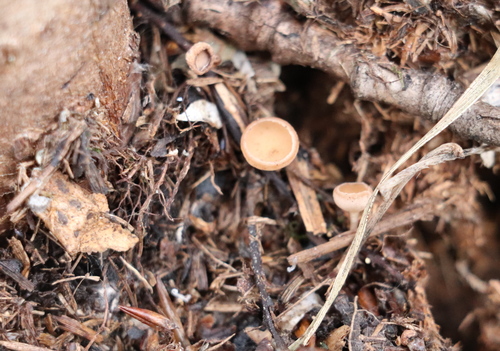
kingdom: Fungi
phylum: Ascomycota
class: Leotiomycetes
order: Helotiales
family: Sclerotiniaceae
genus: Ciboria
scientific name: Ciboria caucus
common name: Alder goblet
